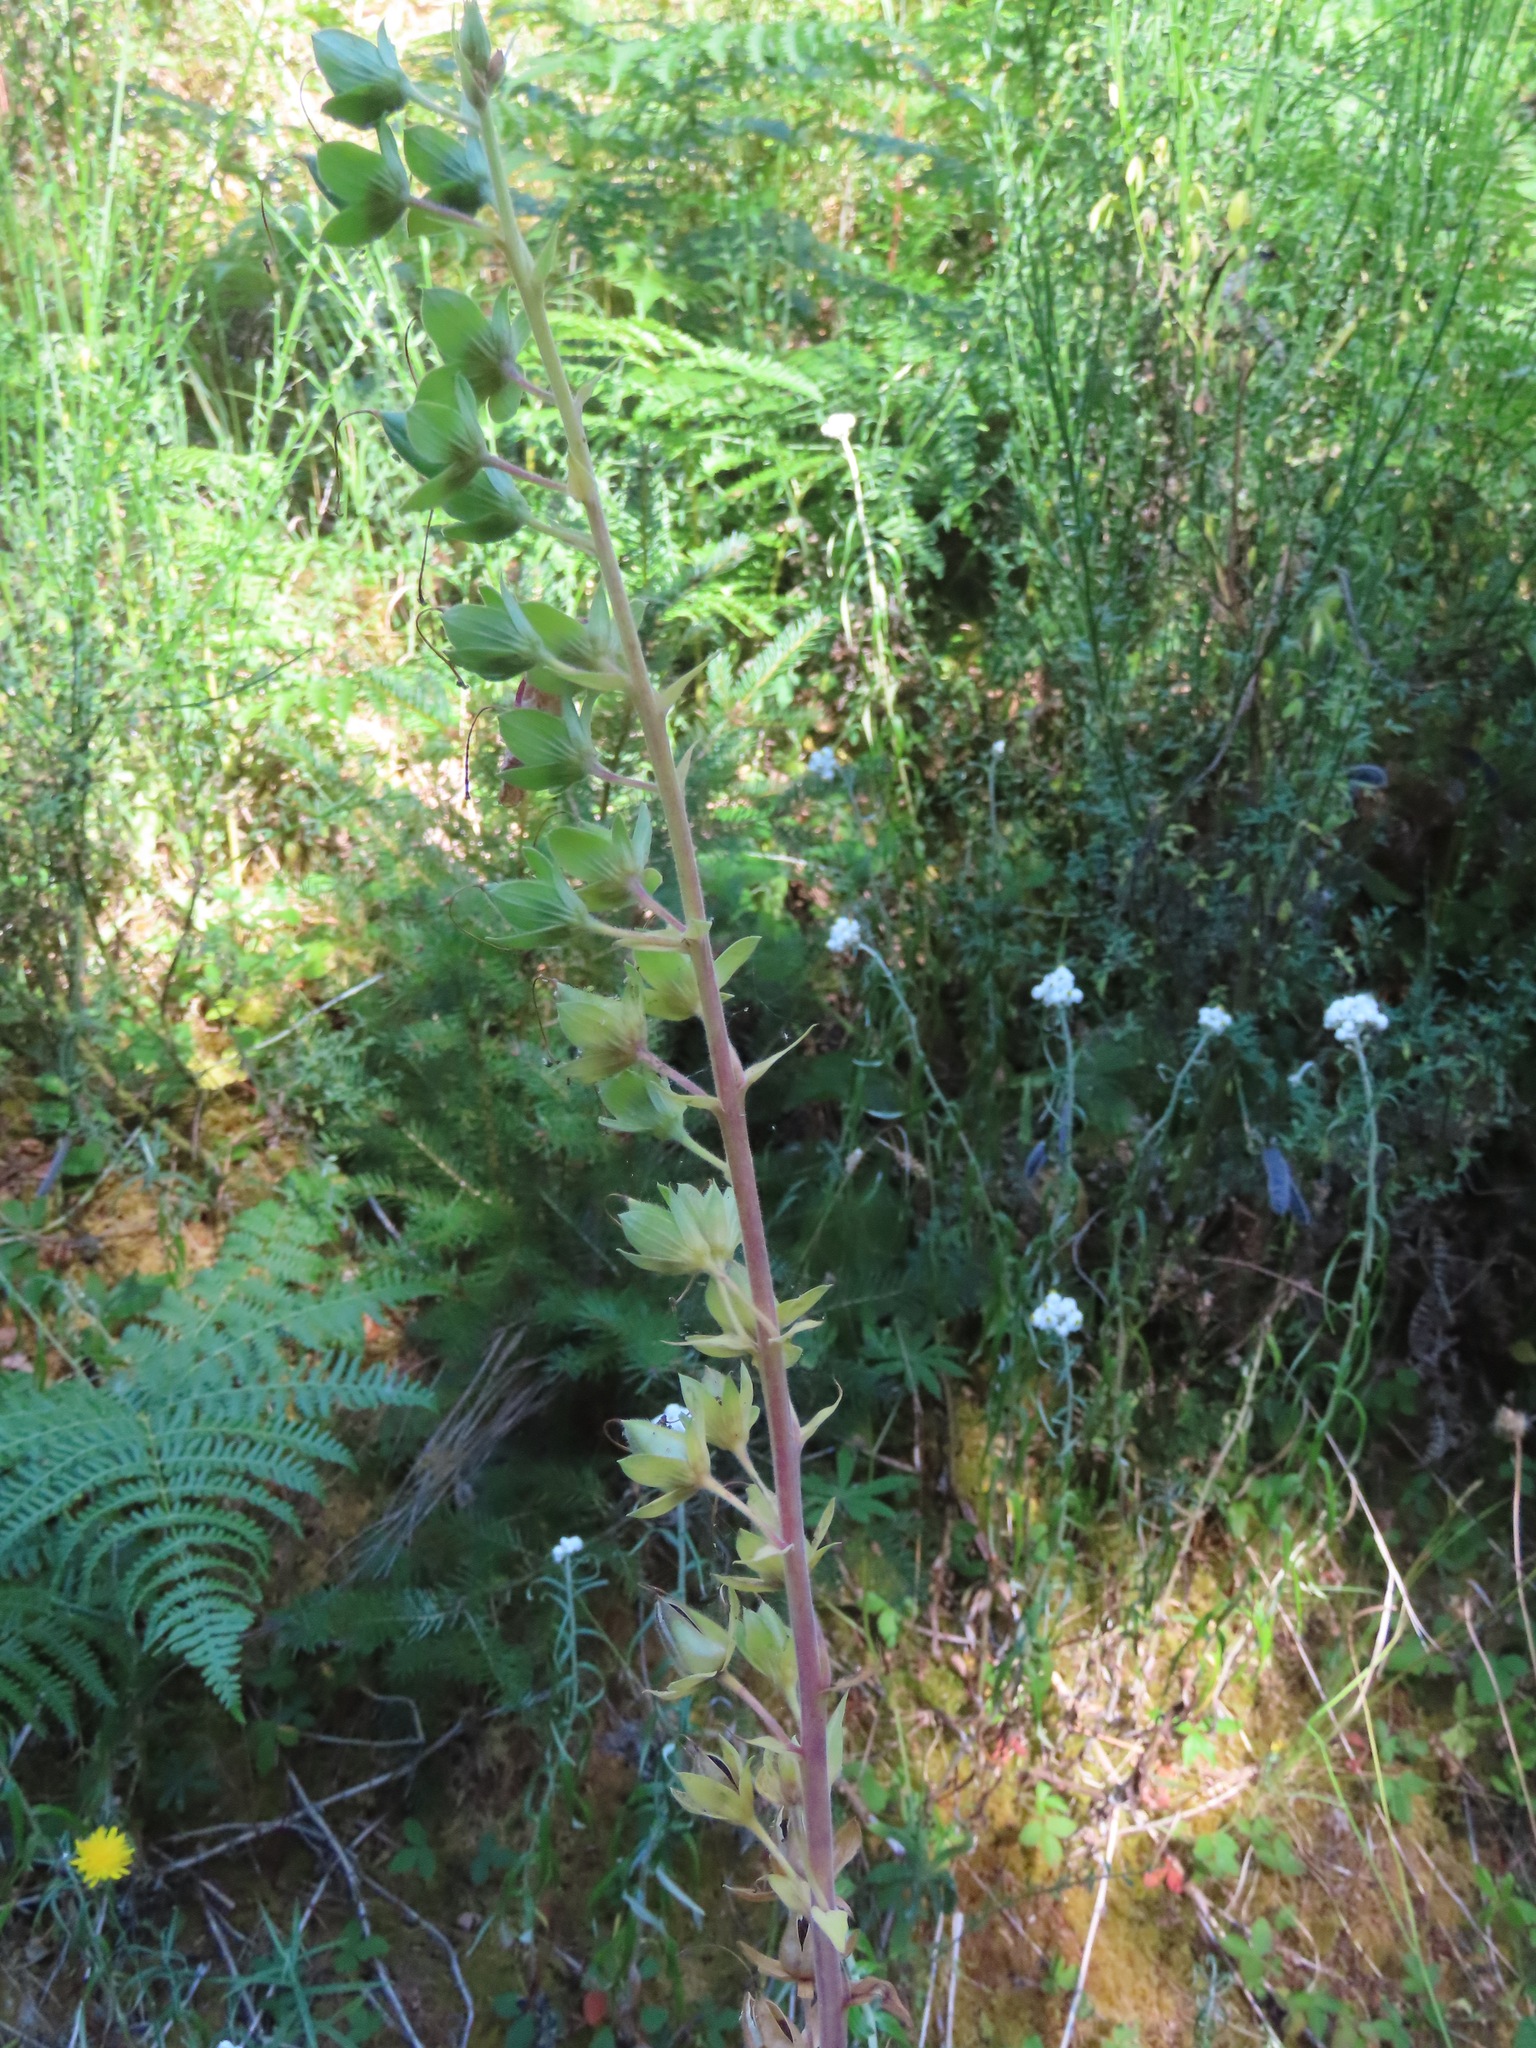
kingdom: Plantae
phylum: Tracheophyta
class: Magnoliopsida
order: Lamiales
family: Plantaginaceae
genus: Digitalis
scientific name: Digitalis purpurea
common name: Foxglove
